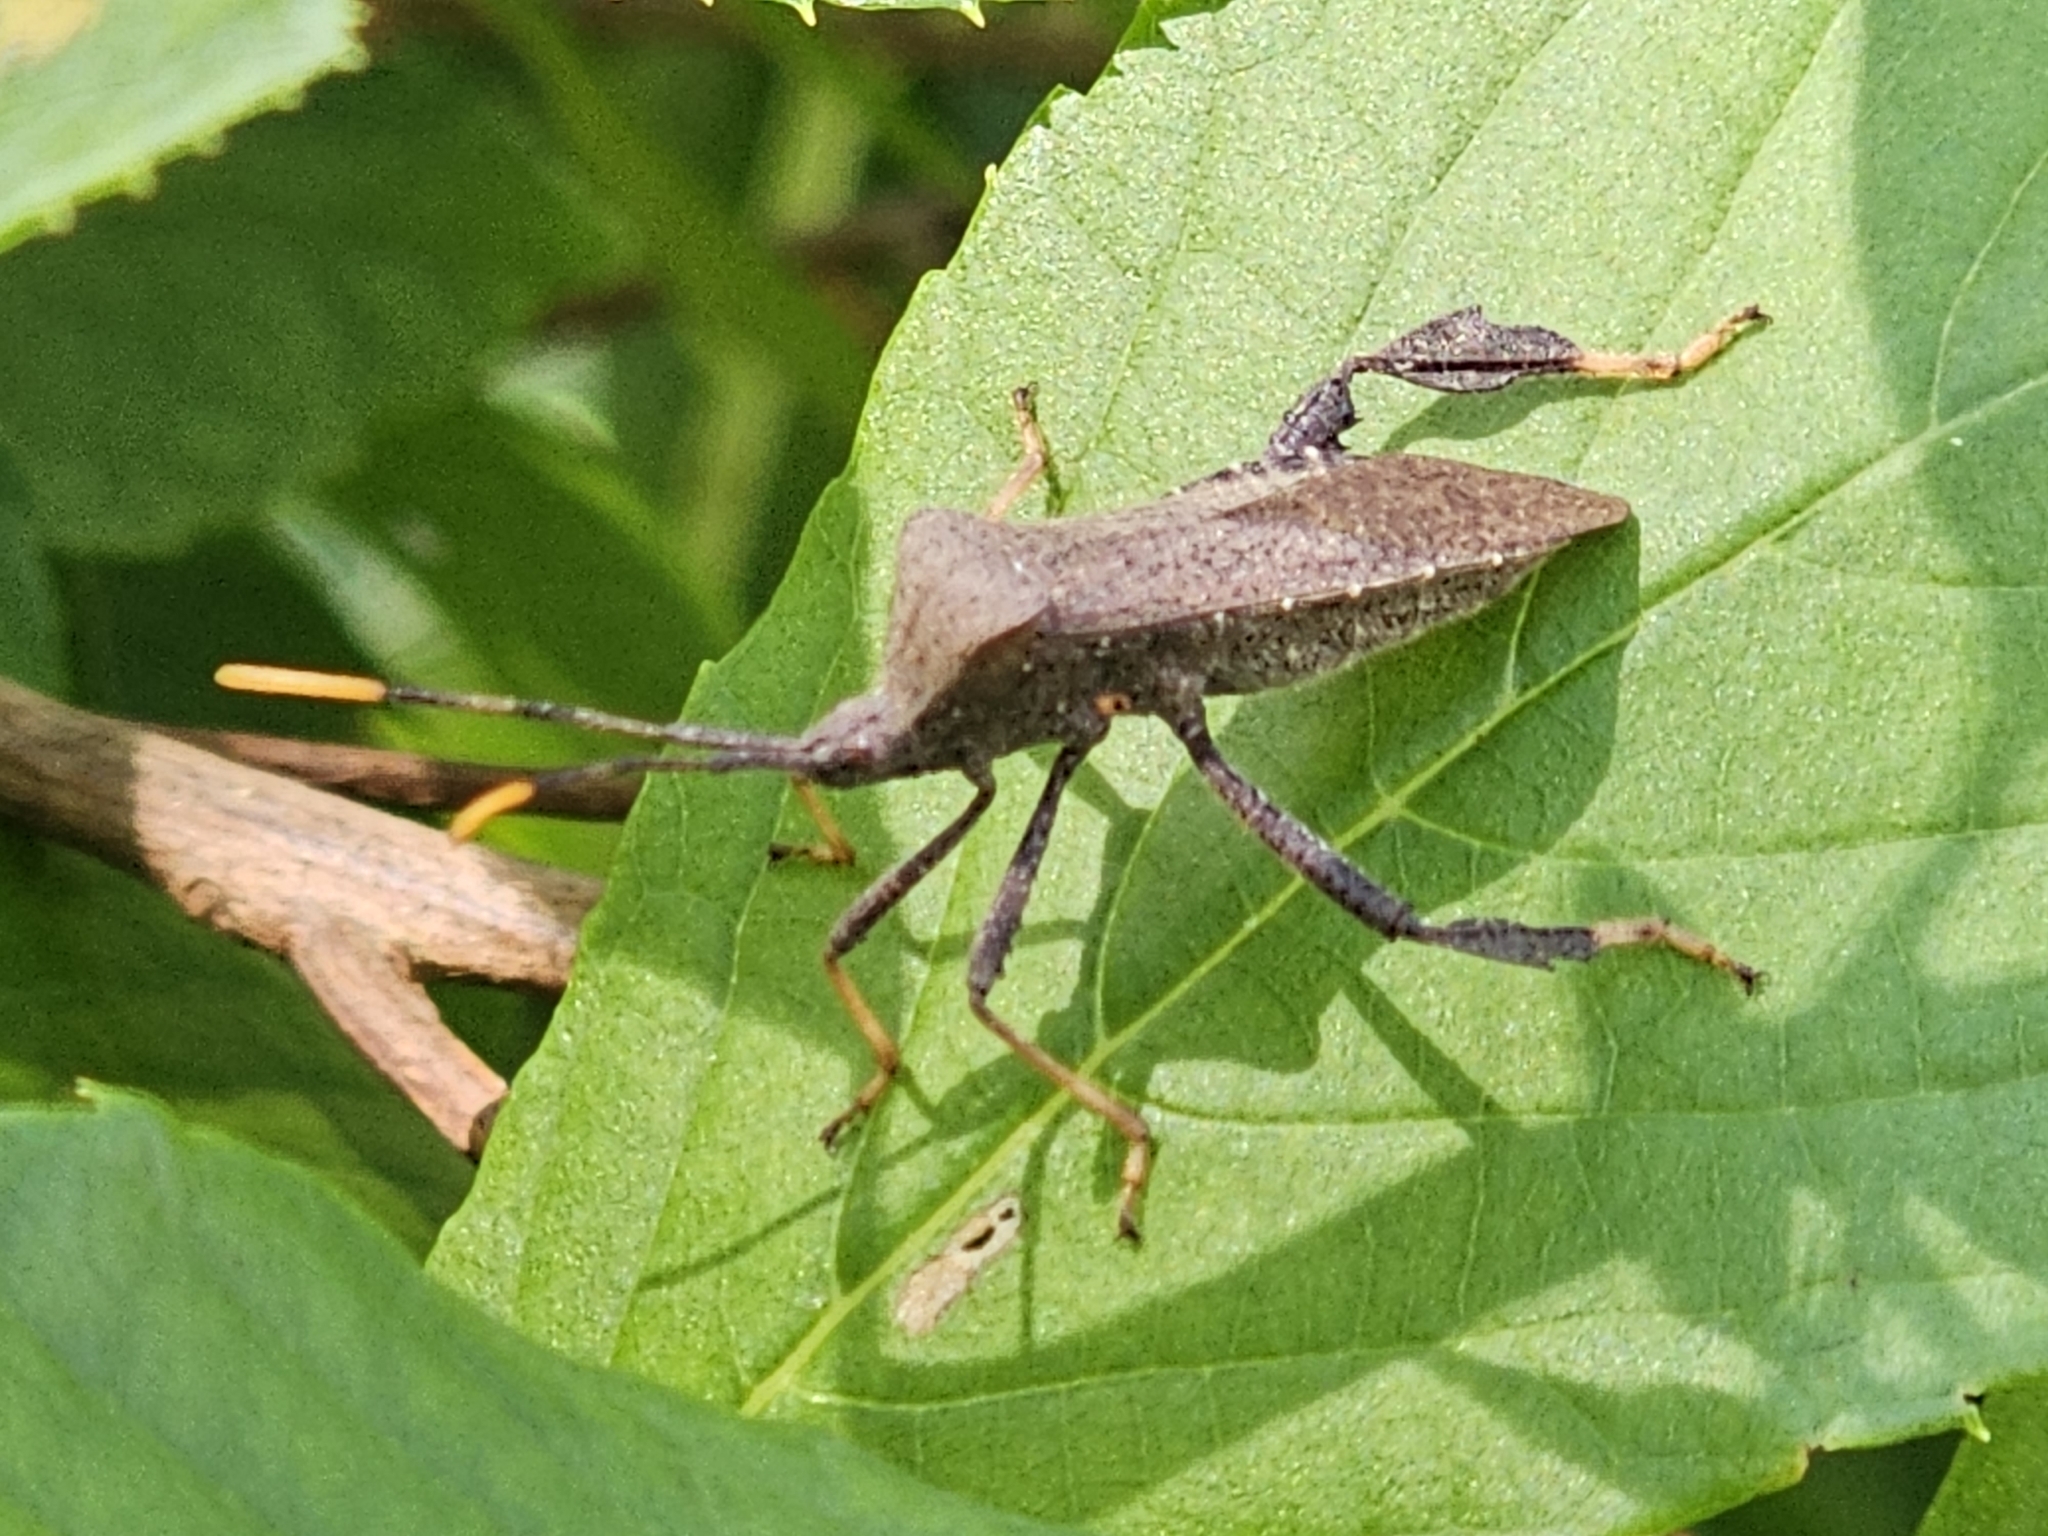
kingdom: Animalia
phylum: Arthropoda
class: Insecta
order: Hemiptera
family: Coreidae
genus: Acanthocephala
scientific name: Acanthocephala terminalis
